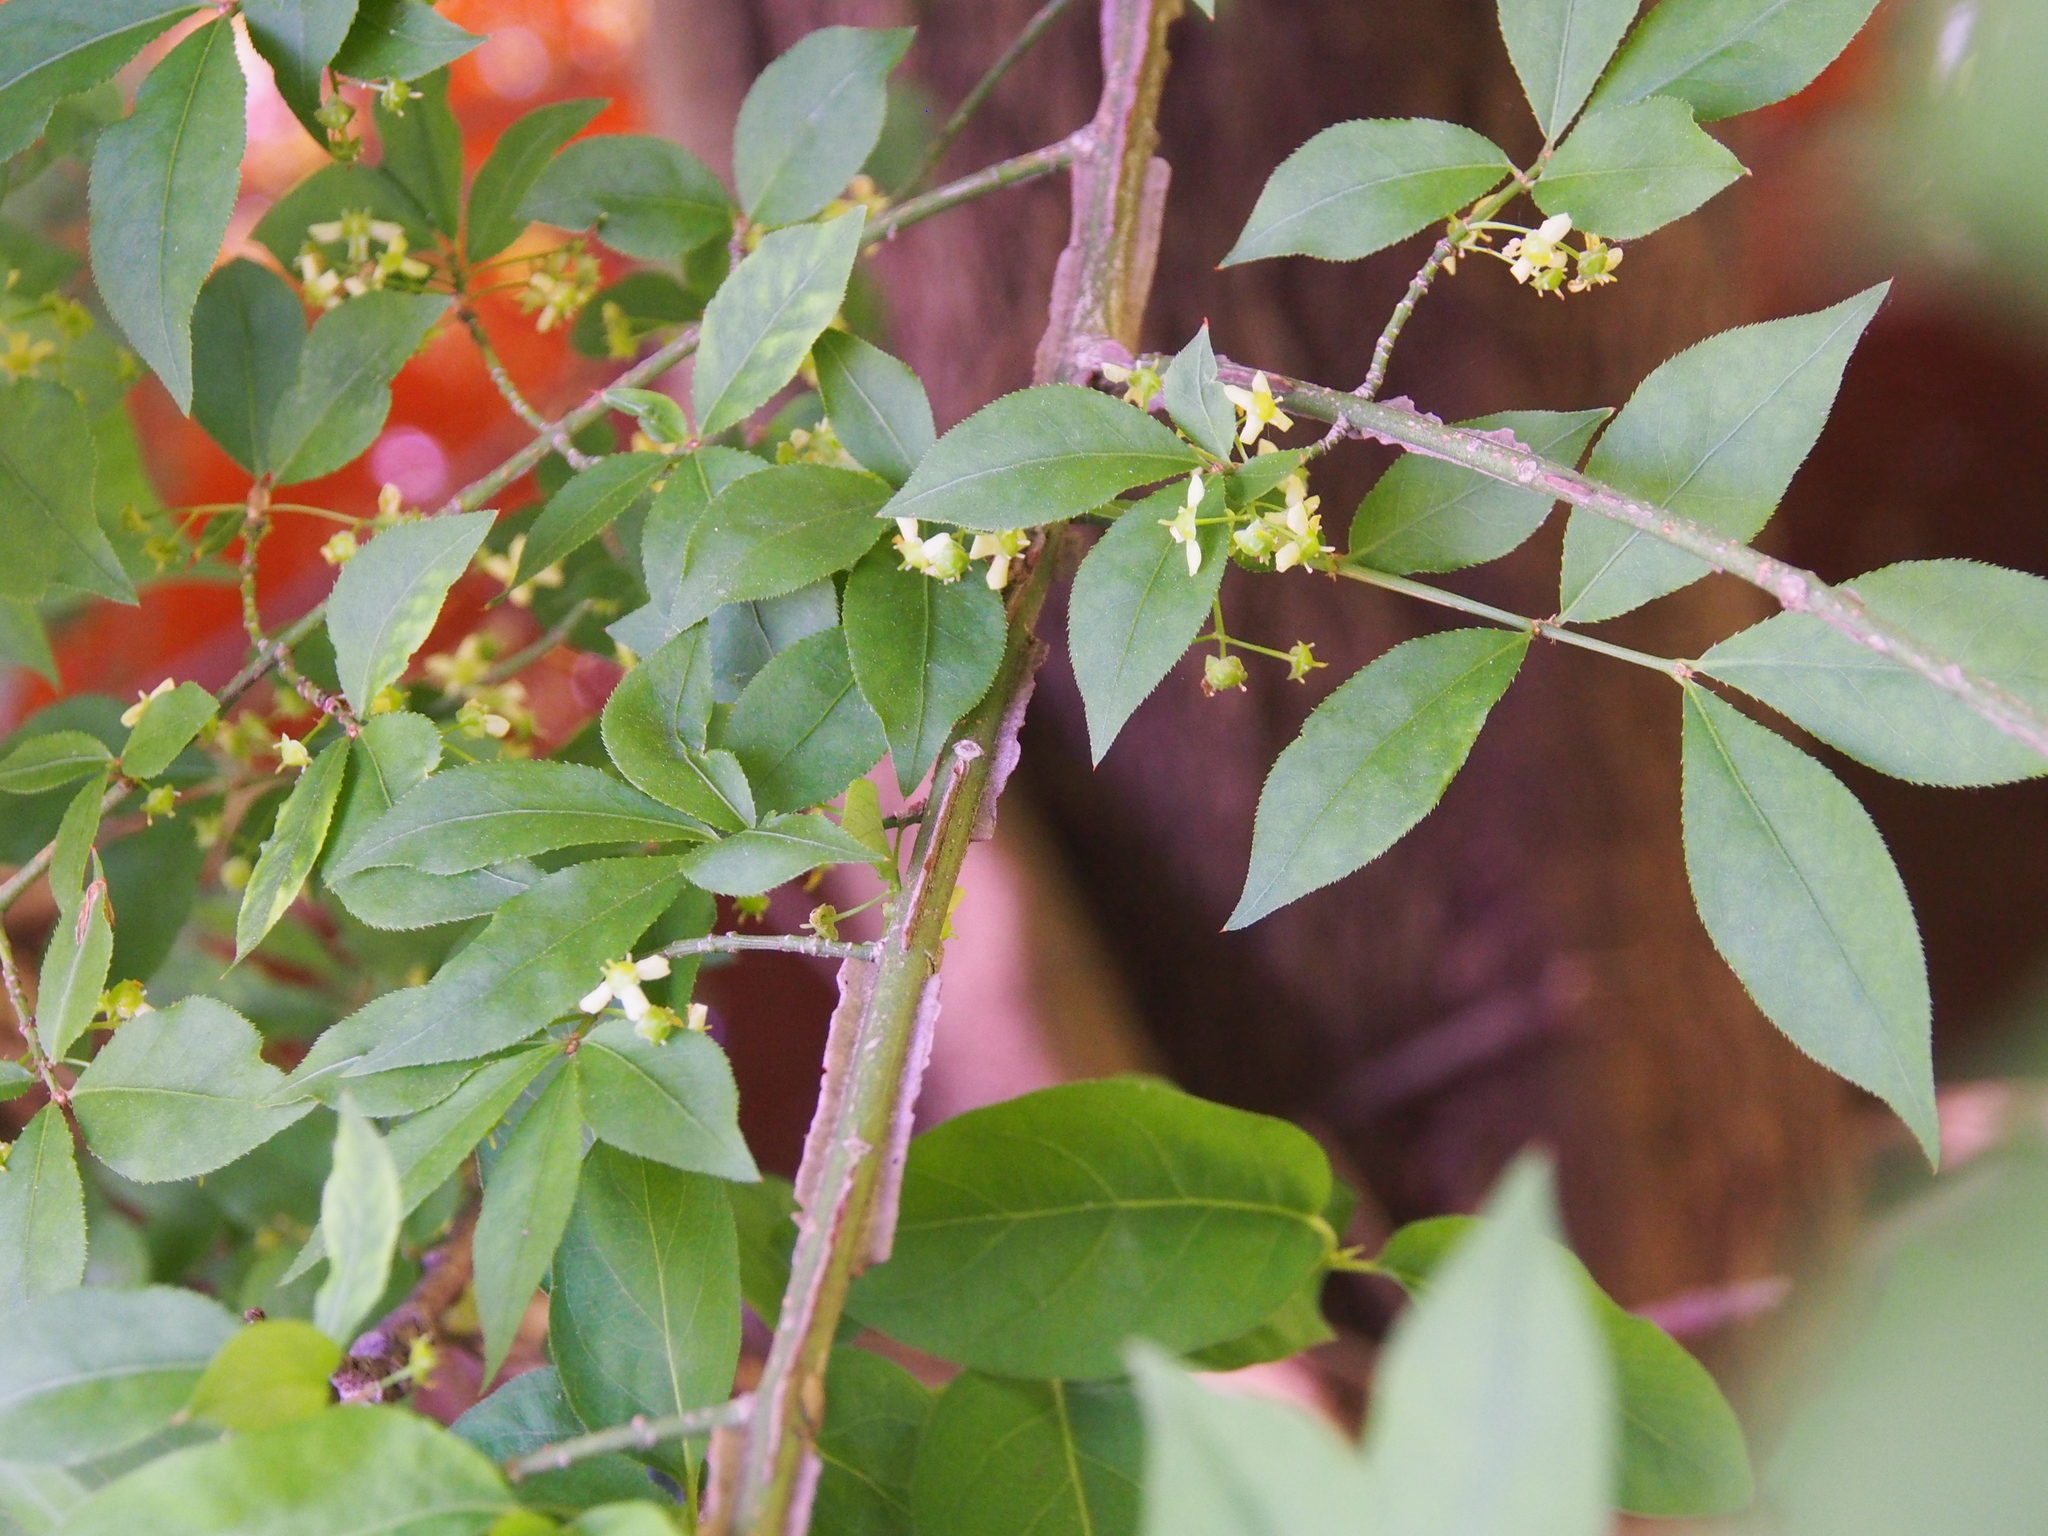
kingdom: Plantae
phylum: Tracheophyta
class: Magnoliopsida
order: Celastrales
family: Celastraceae
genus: Euonymus
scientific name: Euonymus alatus
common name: Winged euonymus
